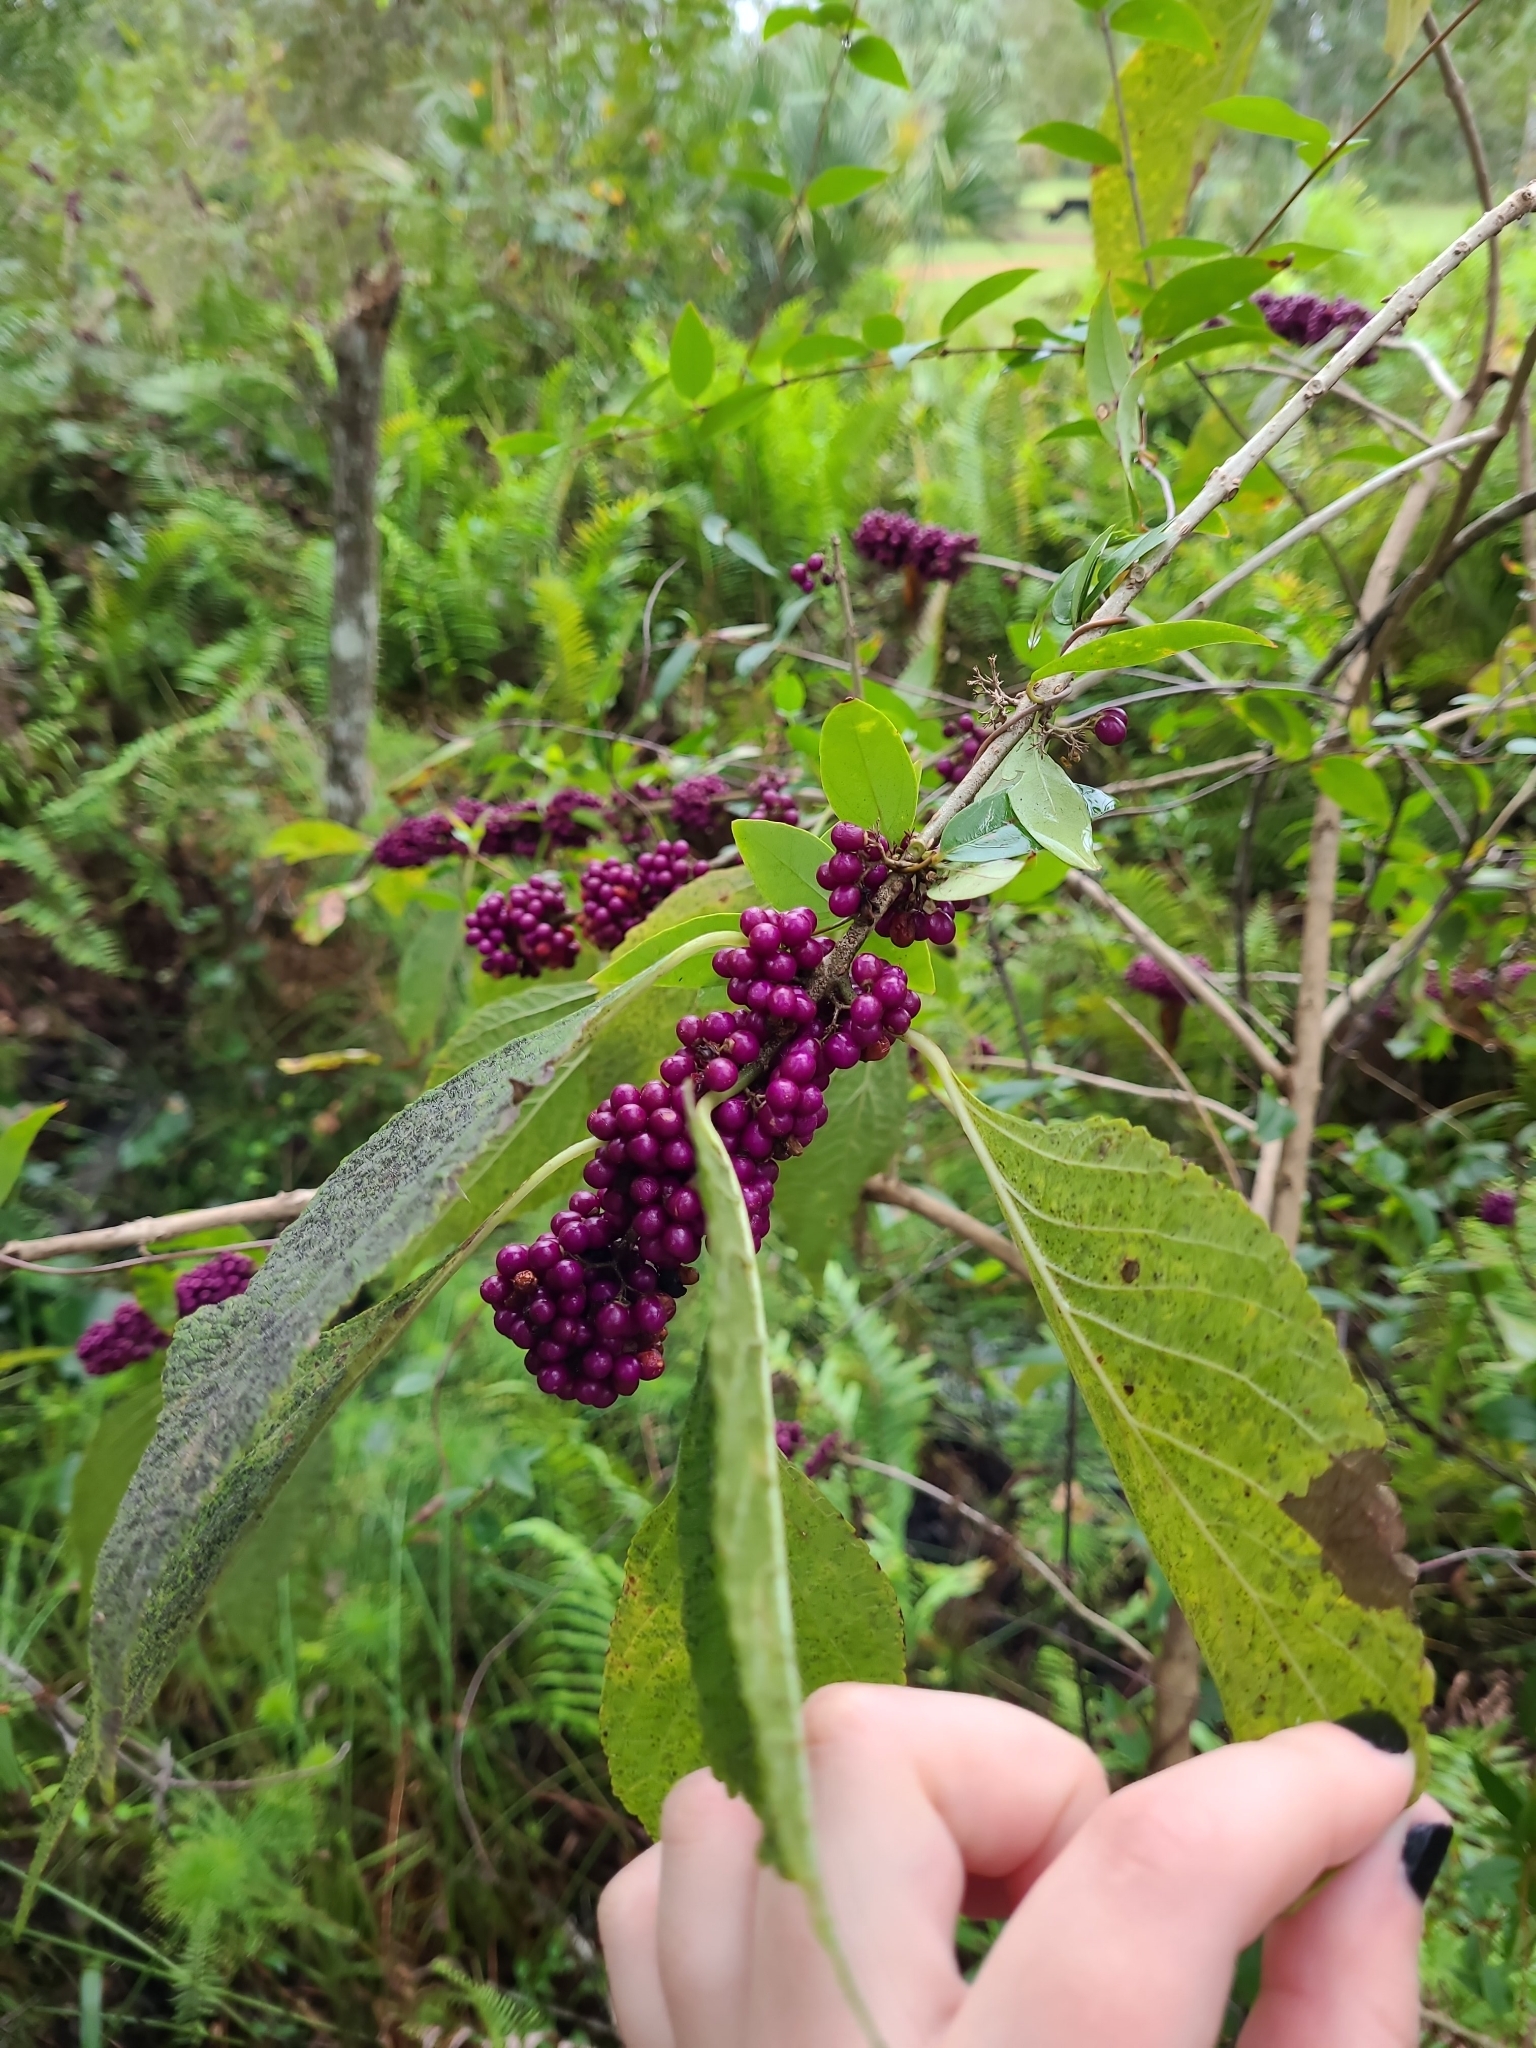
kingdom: Plantae
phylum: Tracheophyta
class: Magnoliopsida
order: Lamiales
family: Lamiaceae
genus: Callicarpa
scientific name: Callicarpa americana
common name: American beautyberry
